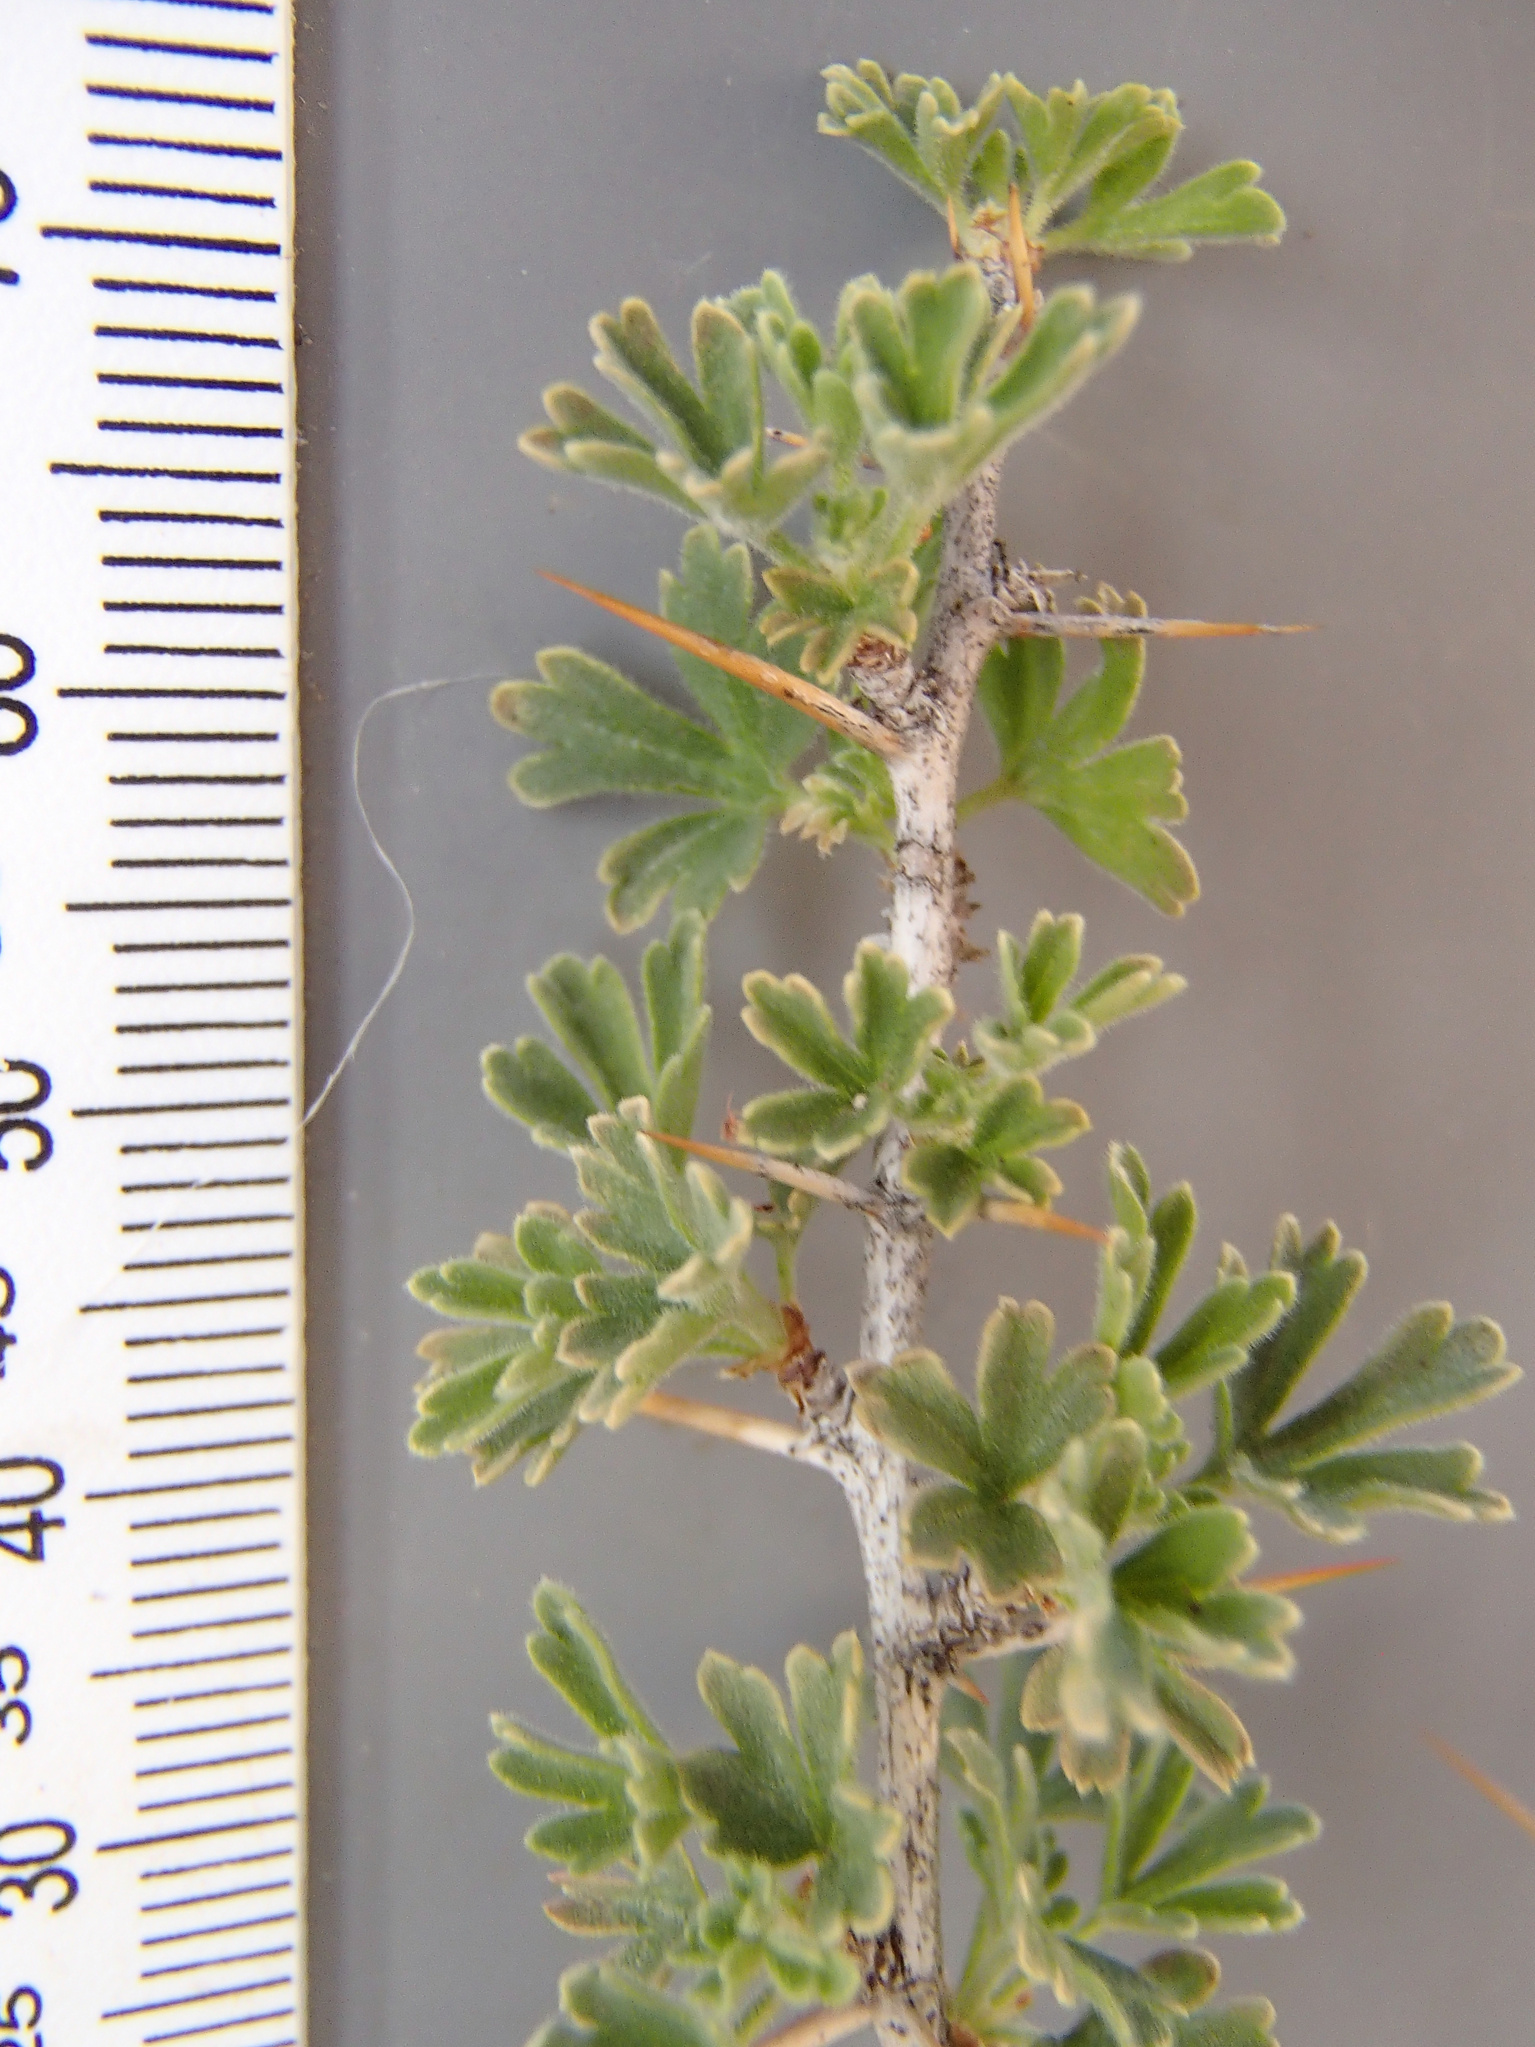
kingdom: Plantae
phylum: Tracheophyta
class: Magnoliopsida
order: Saxifragales
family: Grossulariaceae
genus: Ribes
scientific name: Ribes velutinum
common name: Desert gooseberry
